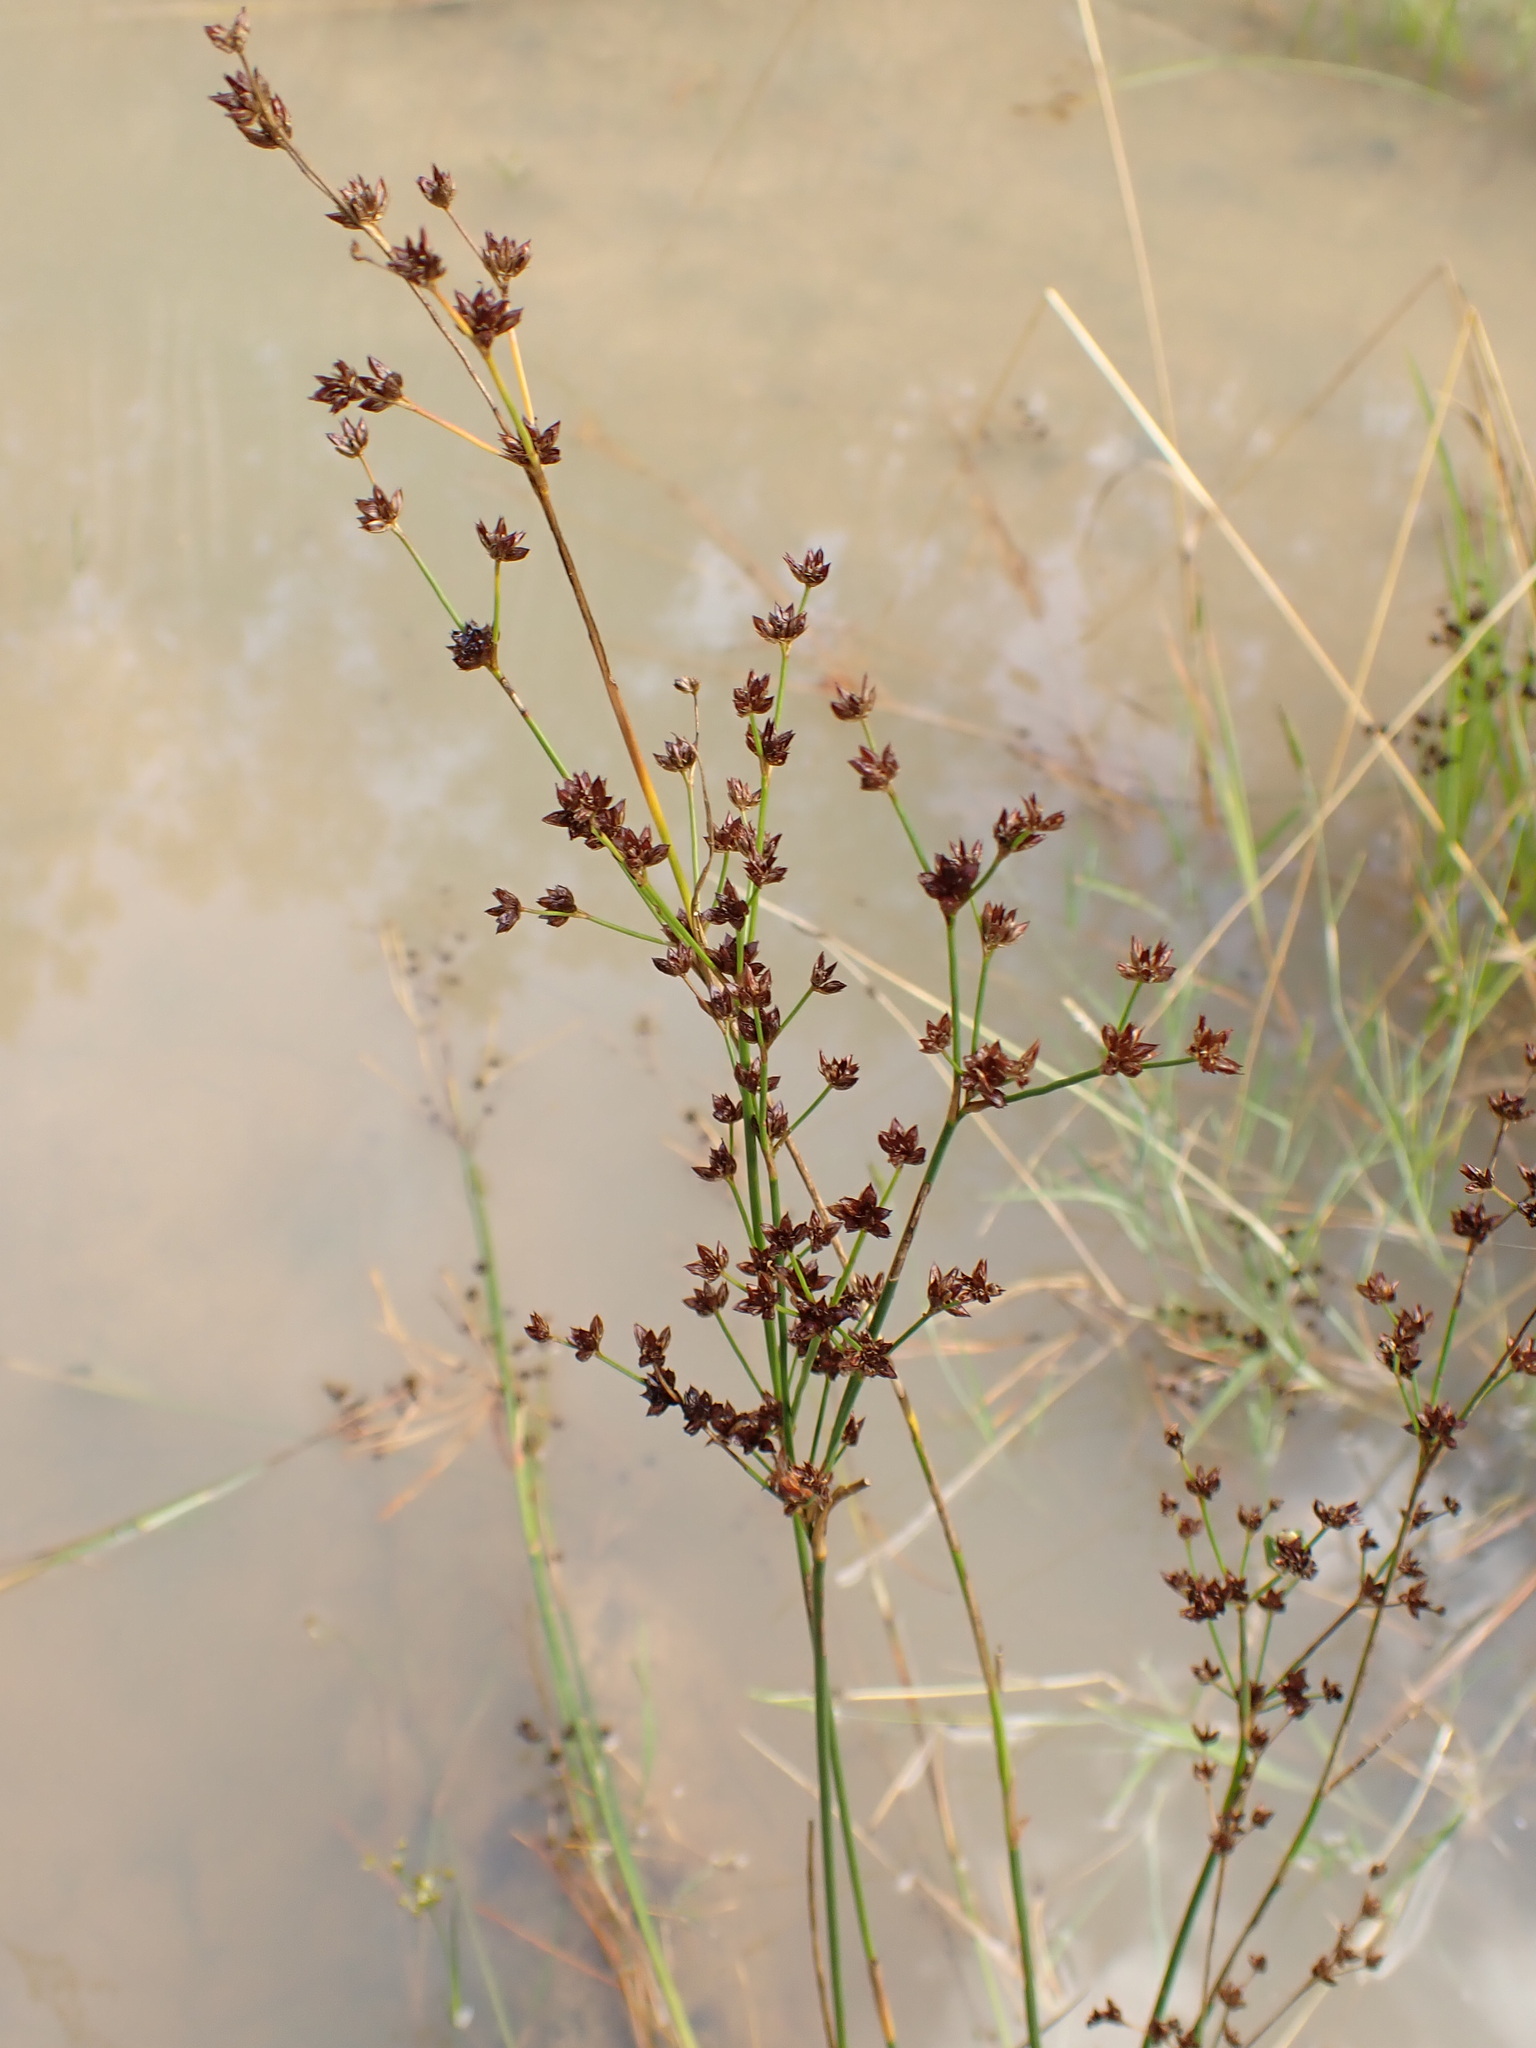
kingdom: Plantae
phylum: Tracheophyta
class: Liliopsida
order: Poales
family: Juncaceae
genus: Juncus
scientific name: Juncus articulatus
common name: Jointed rush
